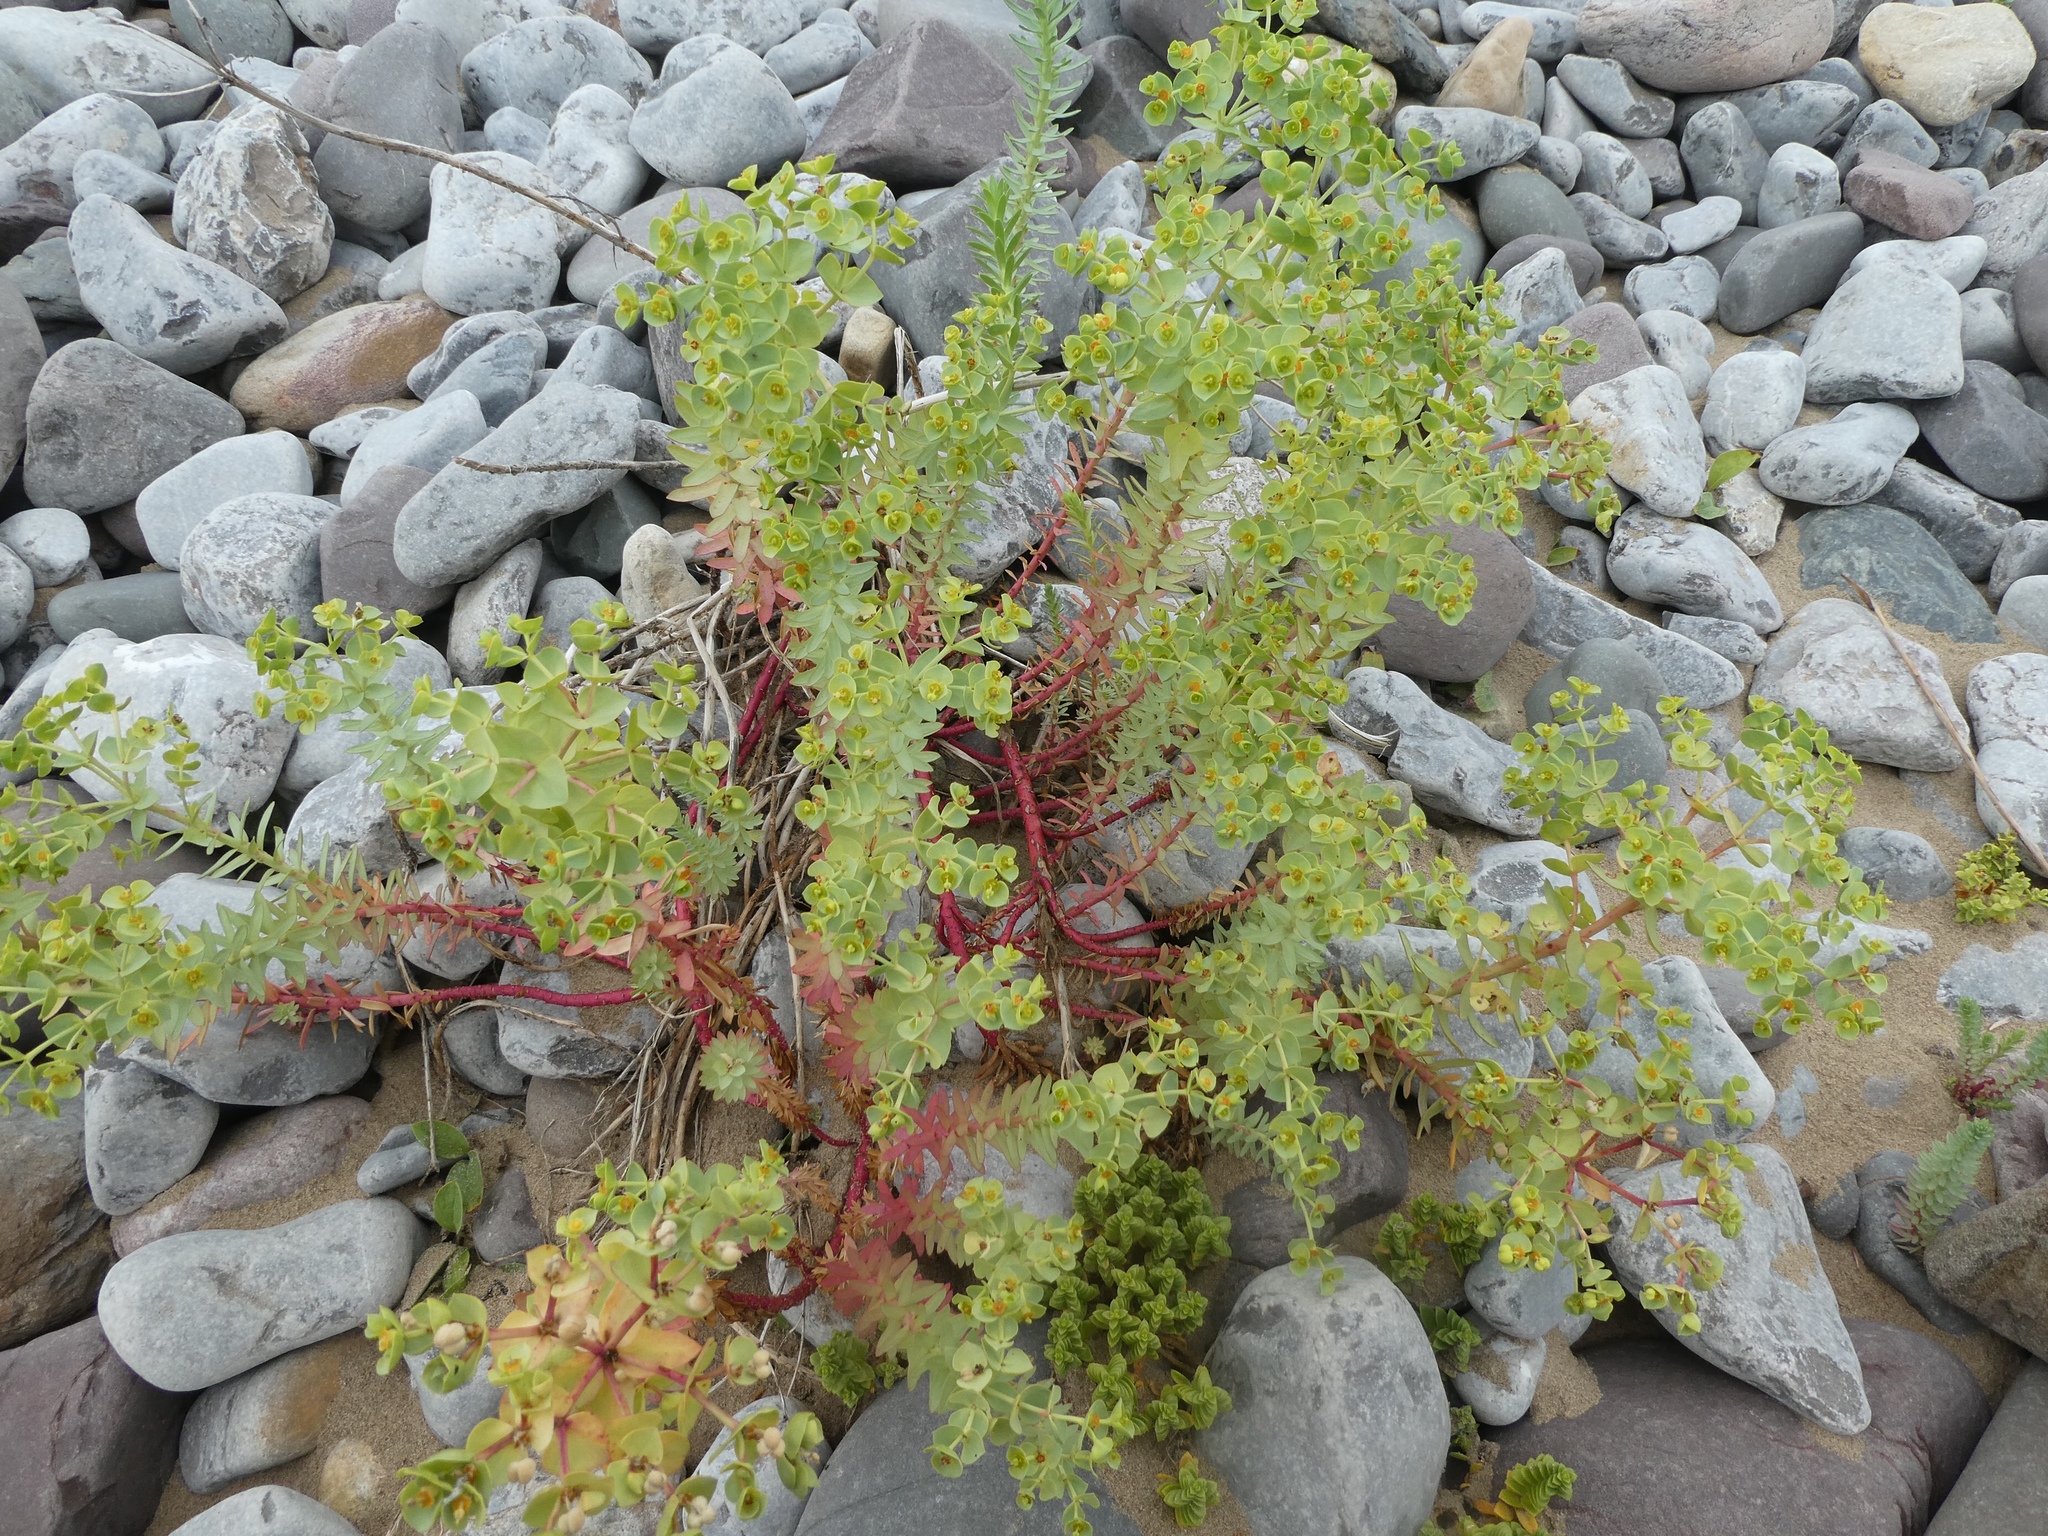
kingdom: Plantae
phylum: Tracheophyta
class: Magnoliopsida
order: Malpighiales
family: Euphorbiaceae
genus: Euphorbia
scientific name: Euphorbia portlandica
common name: Portland spurge
